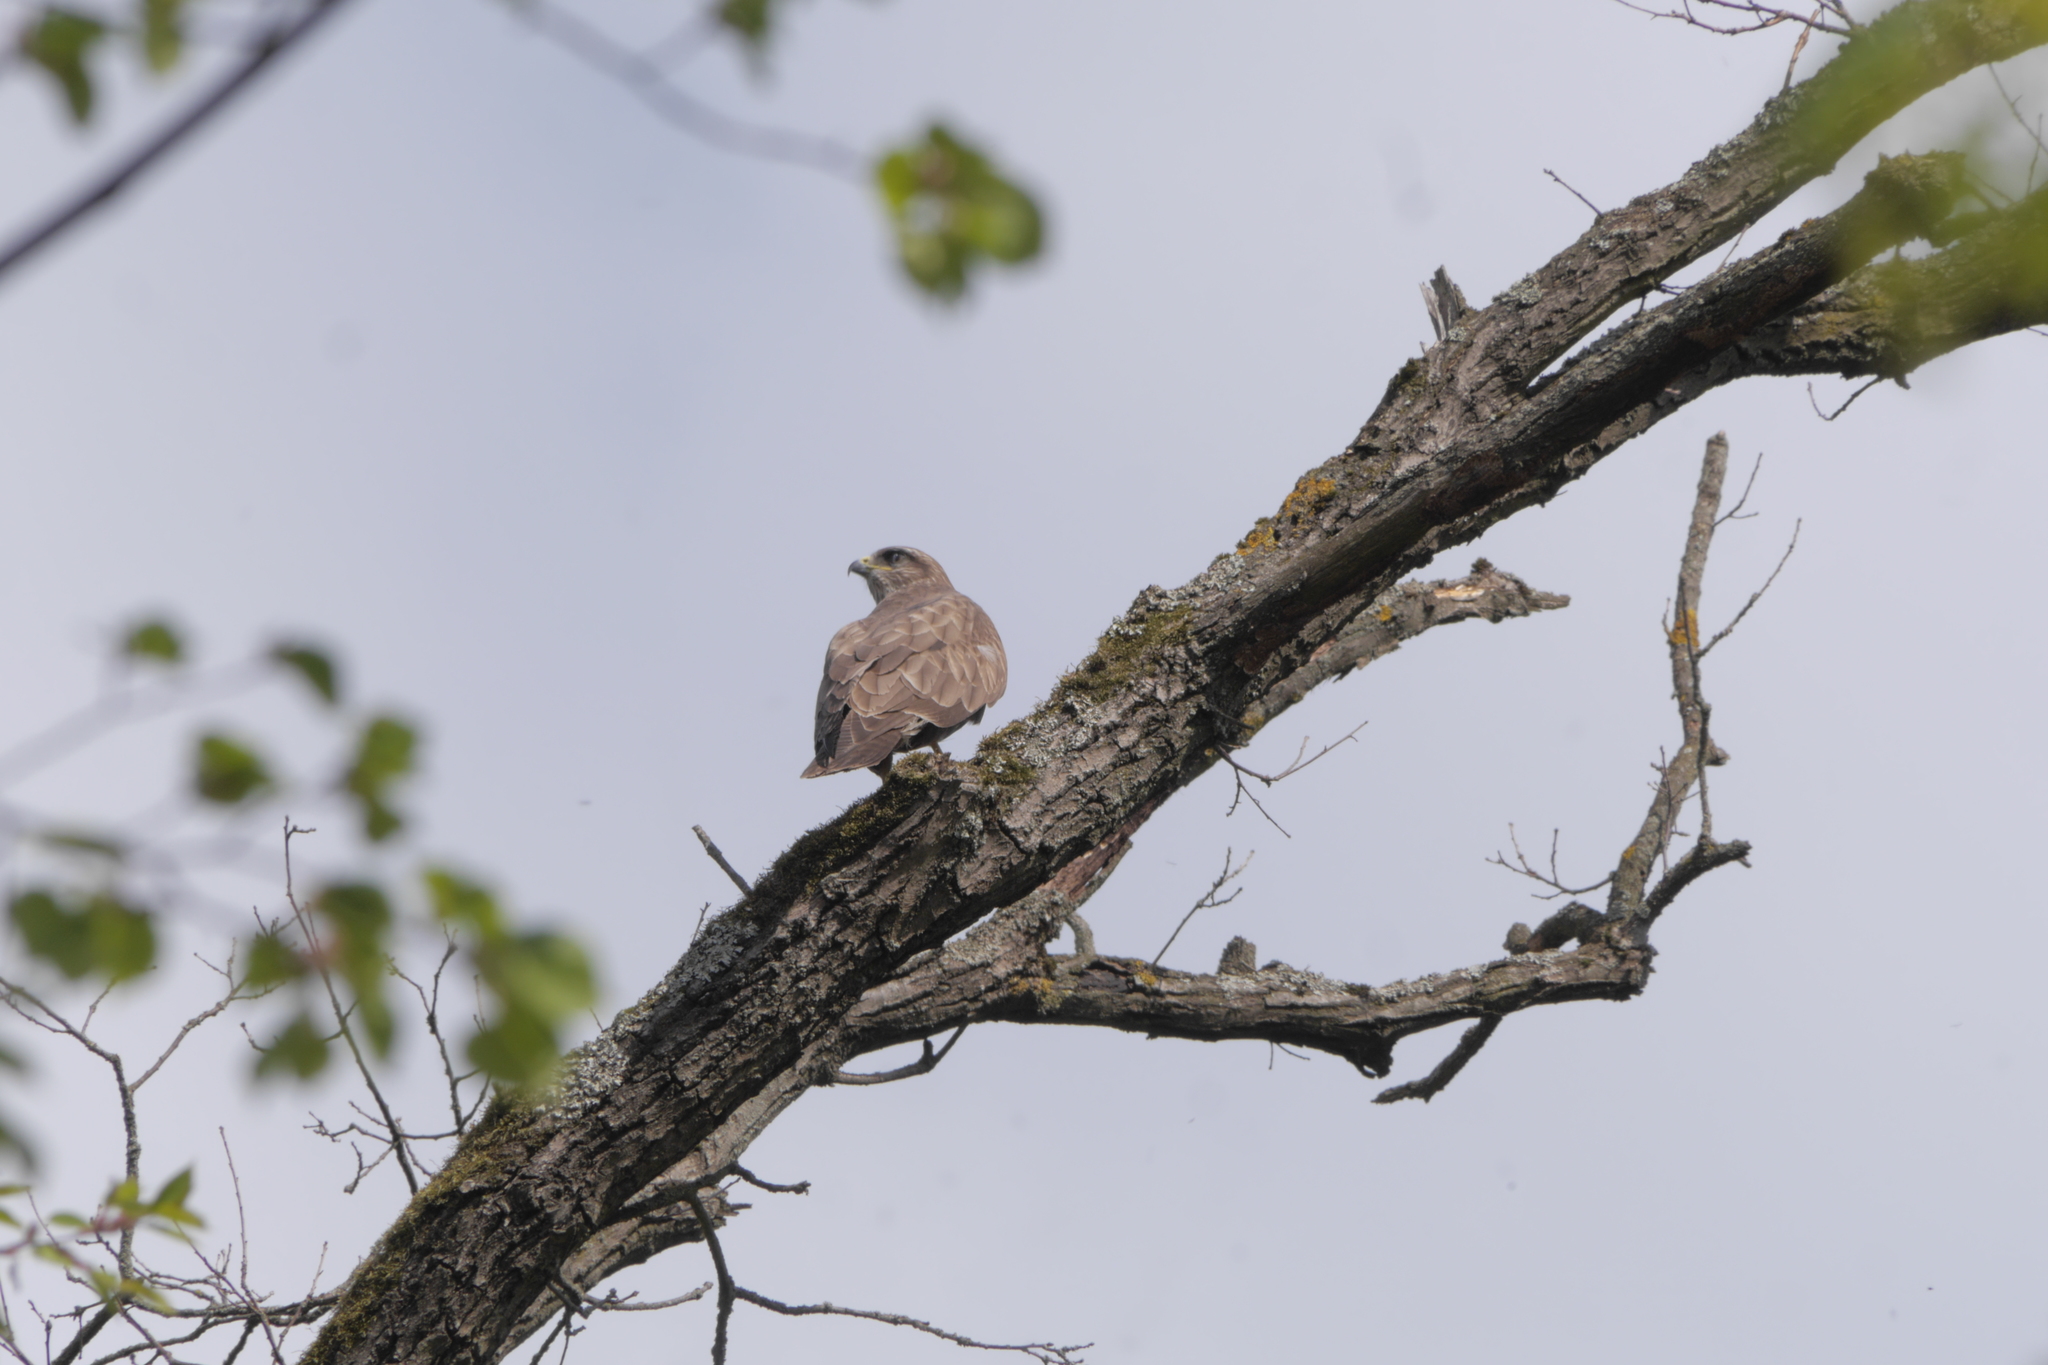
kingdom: Animalia
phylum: Chordata
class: Aves
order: Accipitriformes
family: Accipitridae
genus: Buteo
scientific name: Buteo buteo
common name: Common buzzard
